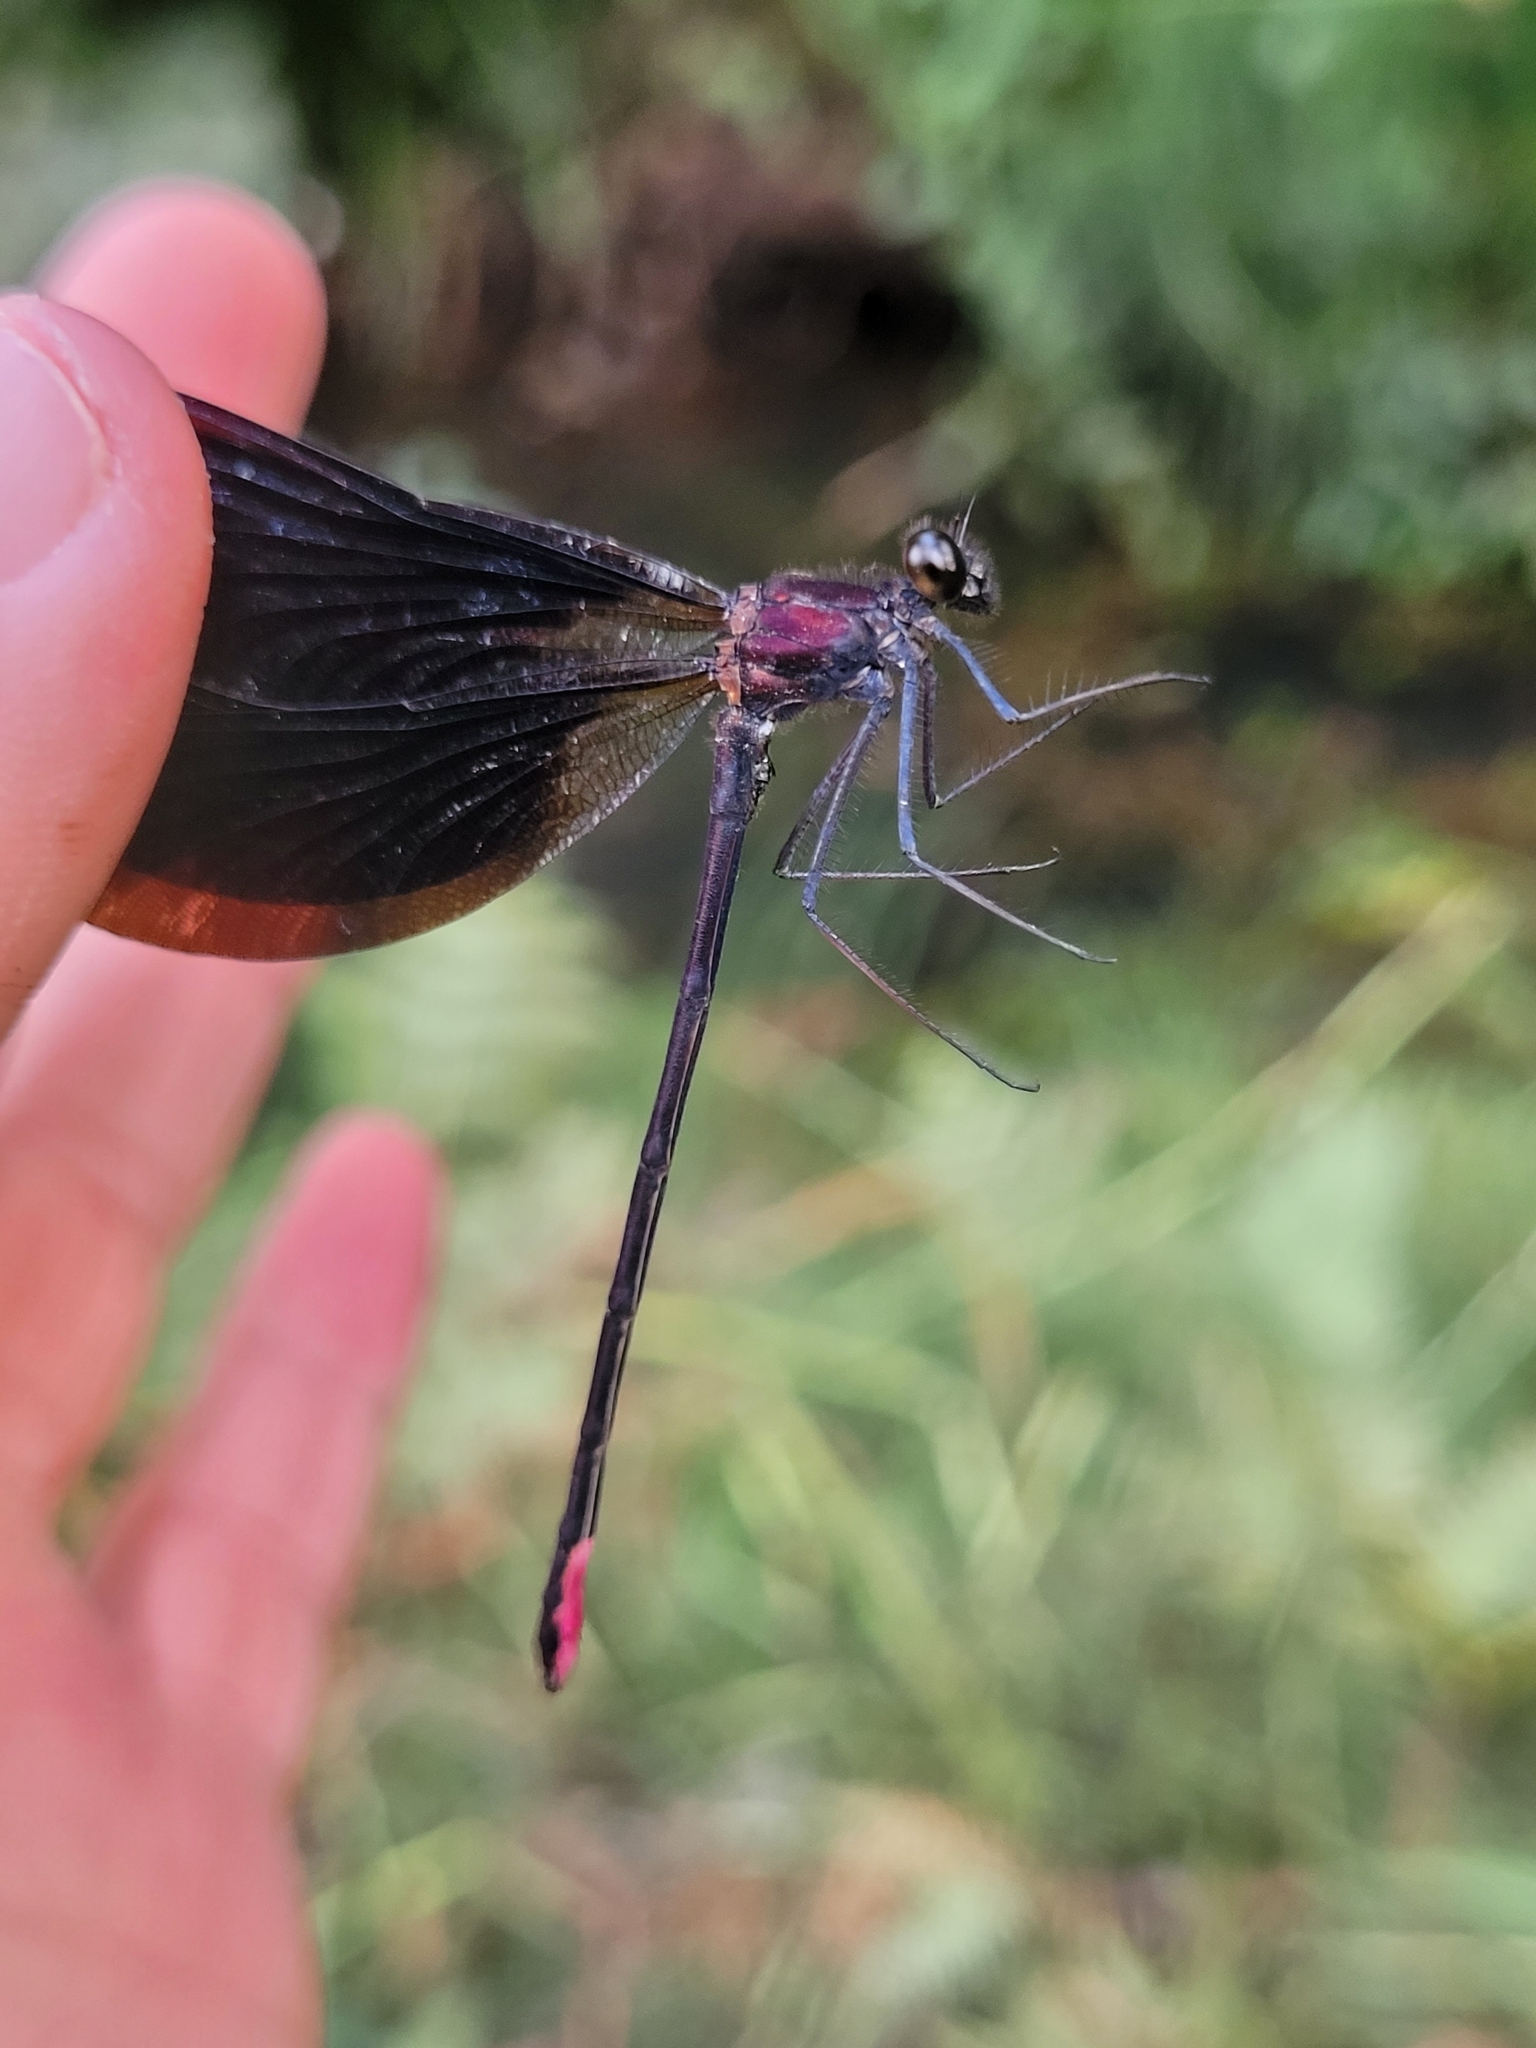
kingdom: Animalia
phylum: Arthropoda
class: Insecta
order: Odonata
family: Calopterygidae
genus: Calopteryx
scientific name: Calopteryx haemorrhoidalis
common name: Copper demoiselle
